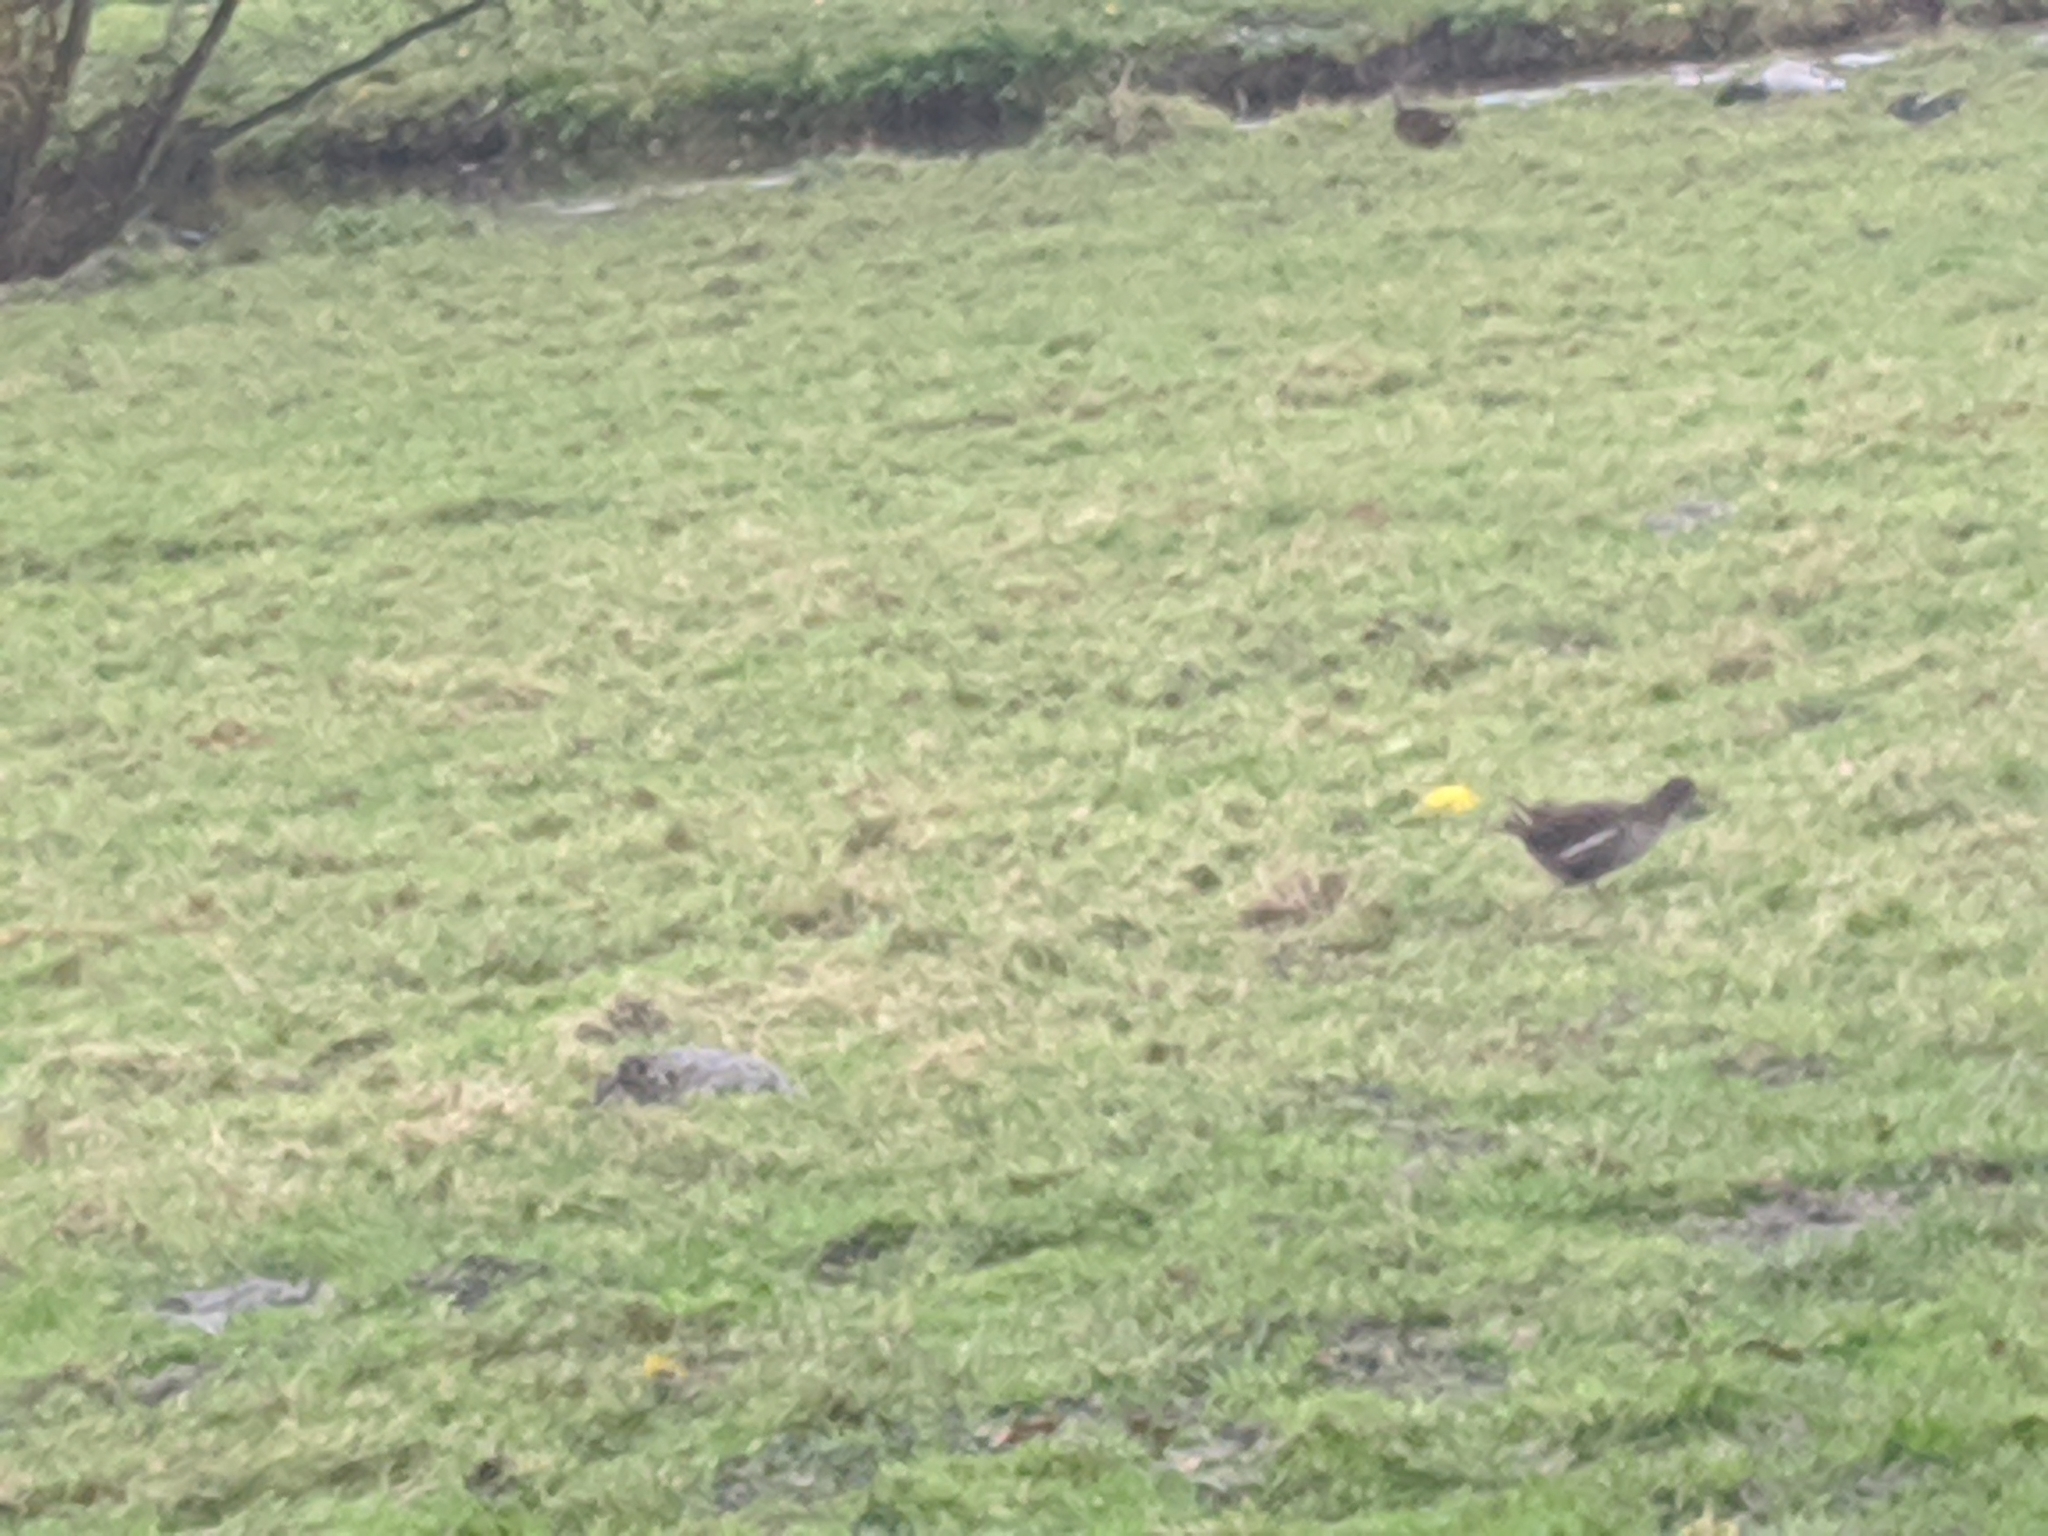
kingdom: Animalia
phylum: Chordata
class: Aves
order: Gruiformes
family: Rallidae
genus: Gallinula
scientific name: Gallinula chloropus
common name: Common moorhen
